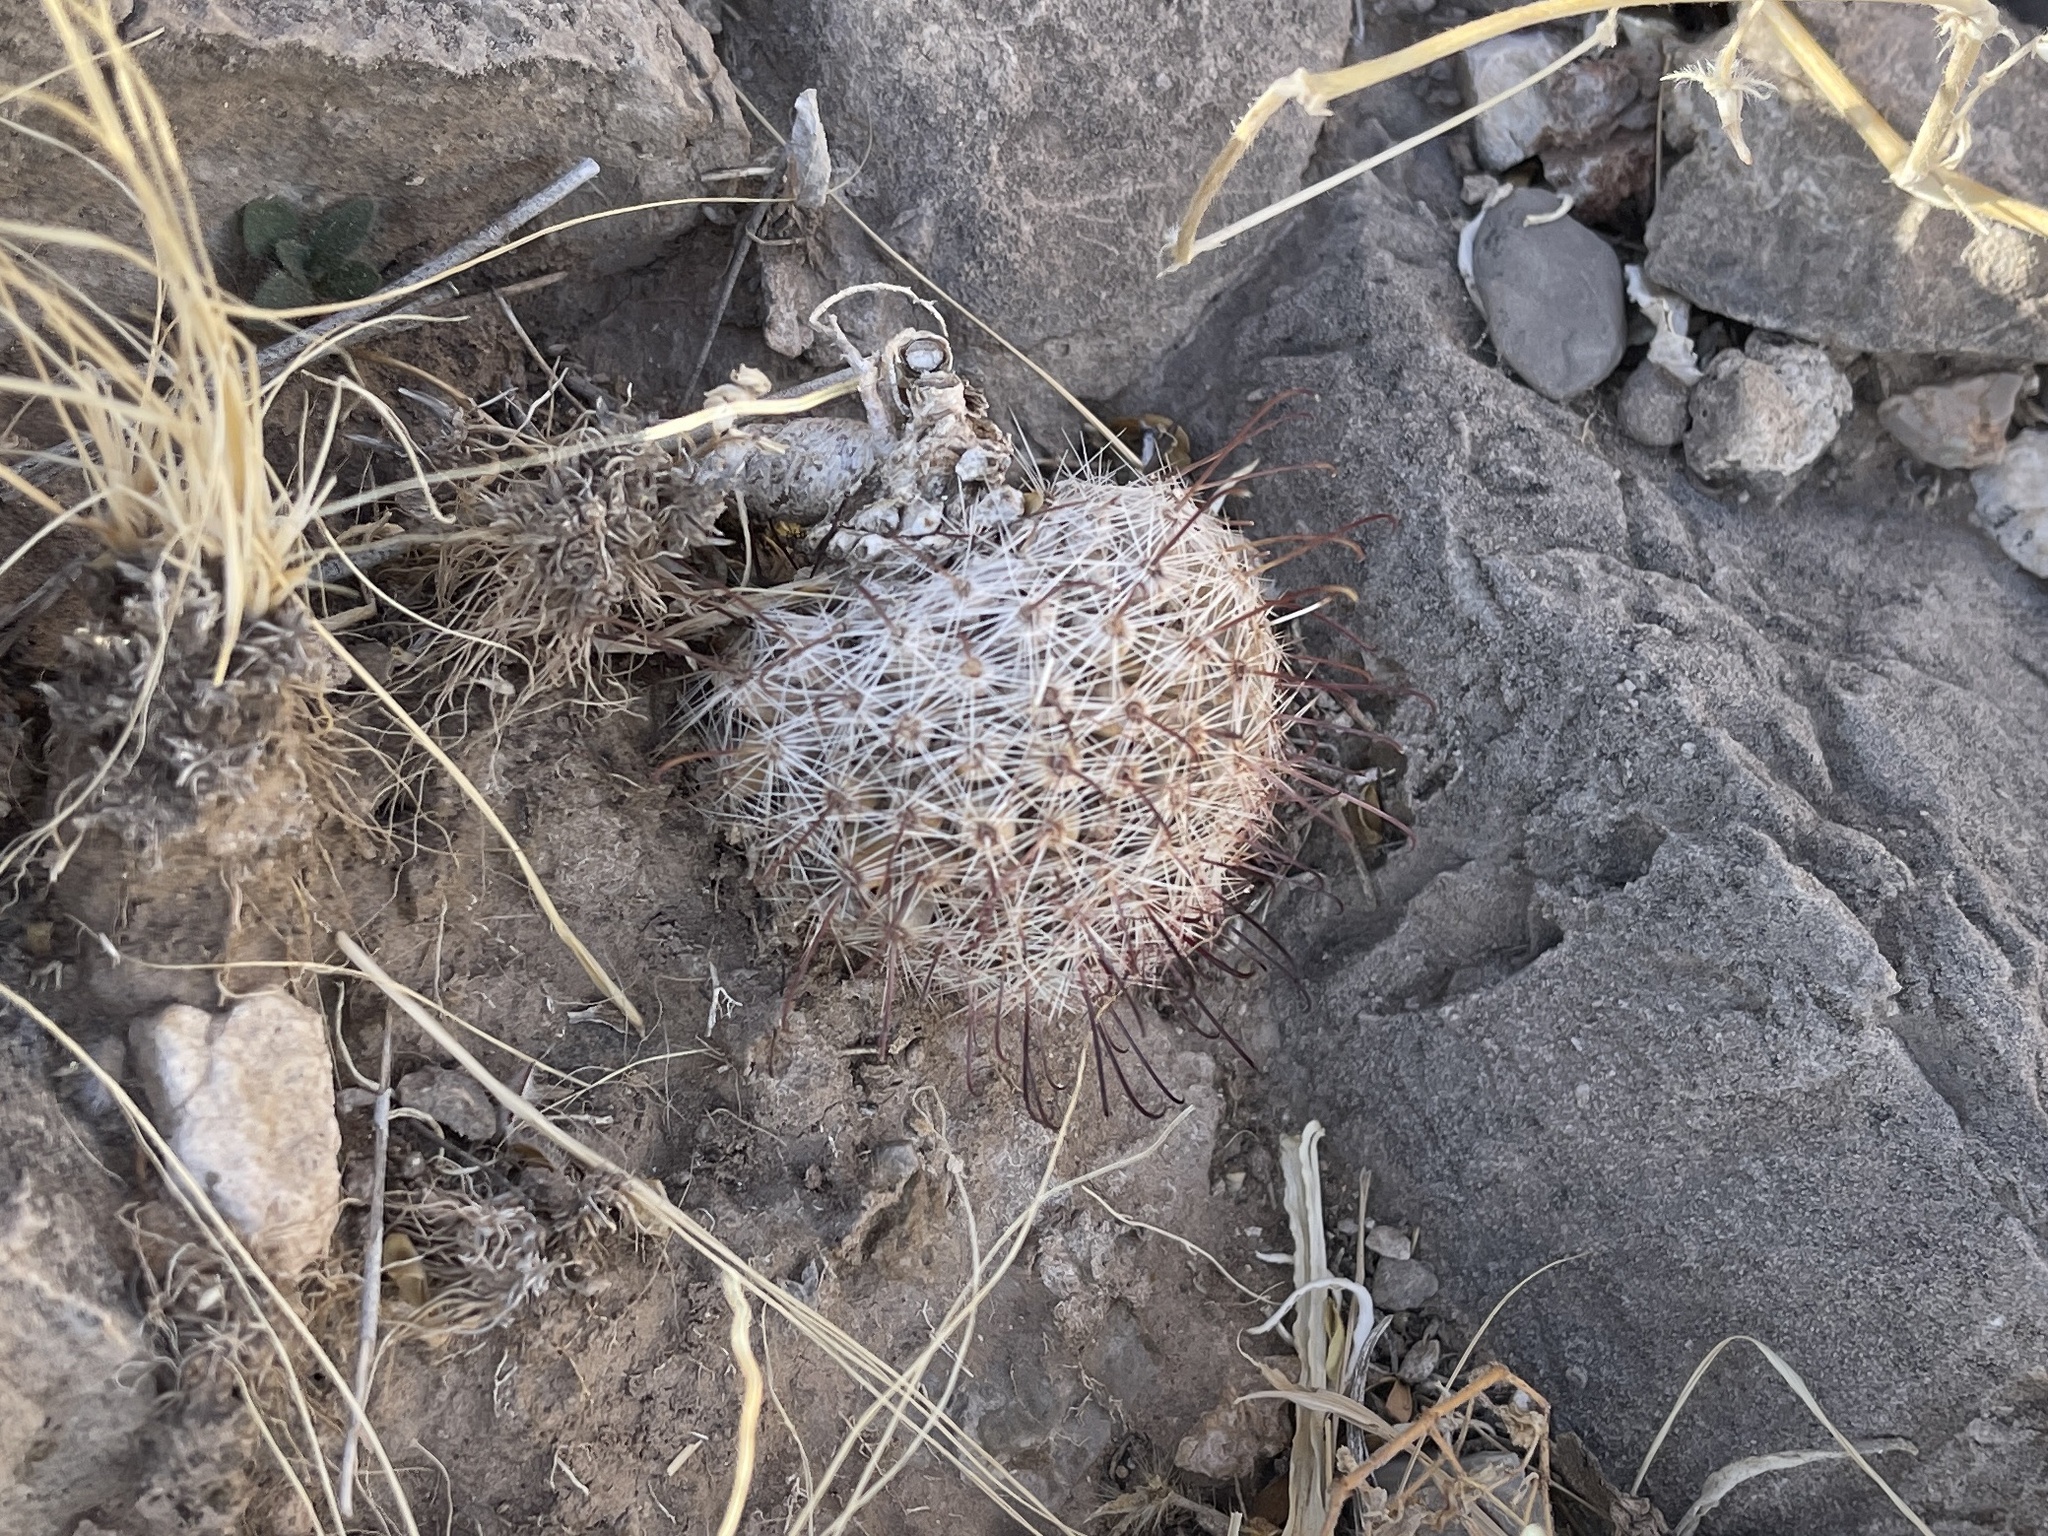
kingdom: Plantae
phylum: Tracheophyta
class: Magnoliopsida
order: Caryophyllales
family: Cactaceae
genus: Cochemiea
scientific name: Cochemiea grahamii
